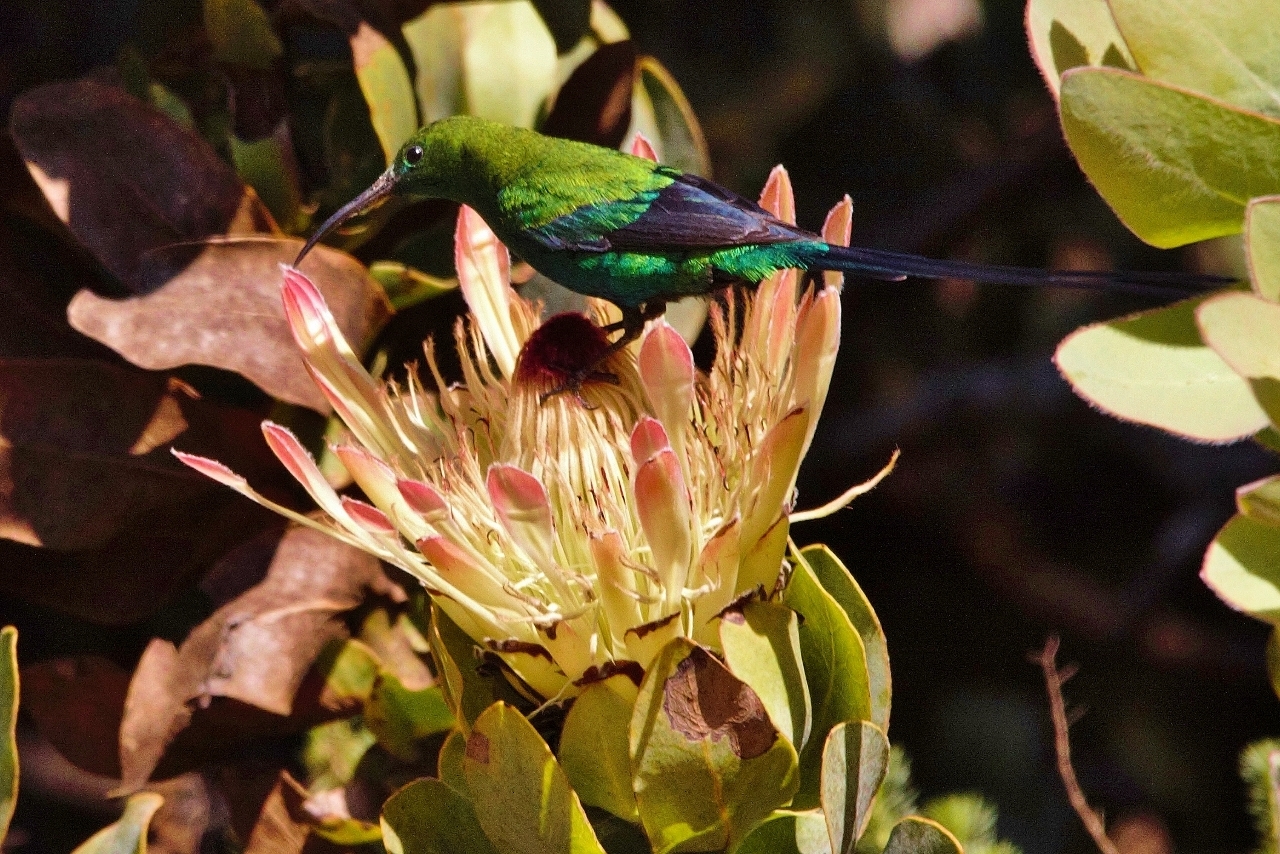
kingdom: Animalia
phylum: Chordata
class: Aves
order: Passeriformes
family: Nectariniidae
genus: Nectarinia
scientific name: Nectarinia famosa
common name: Malachite sunbird
